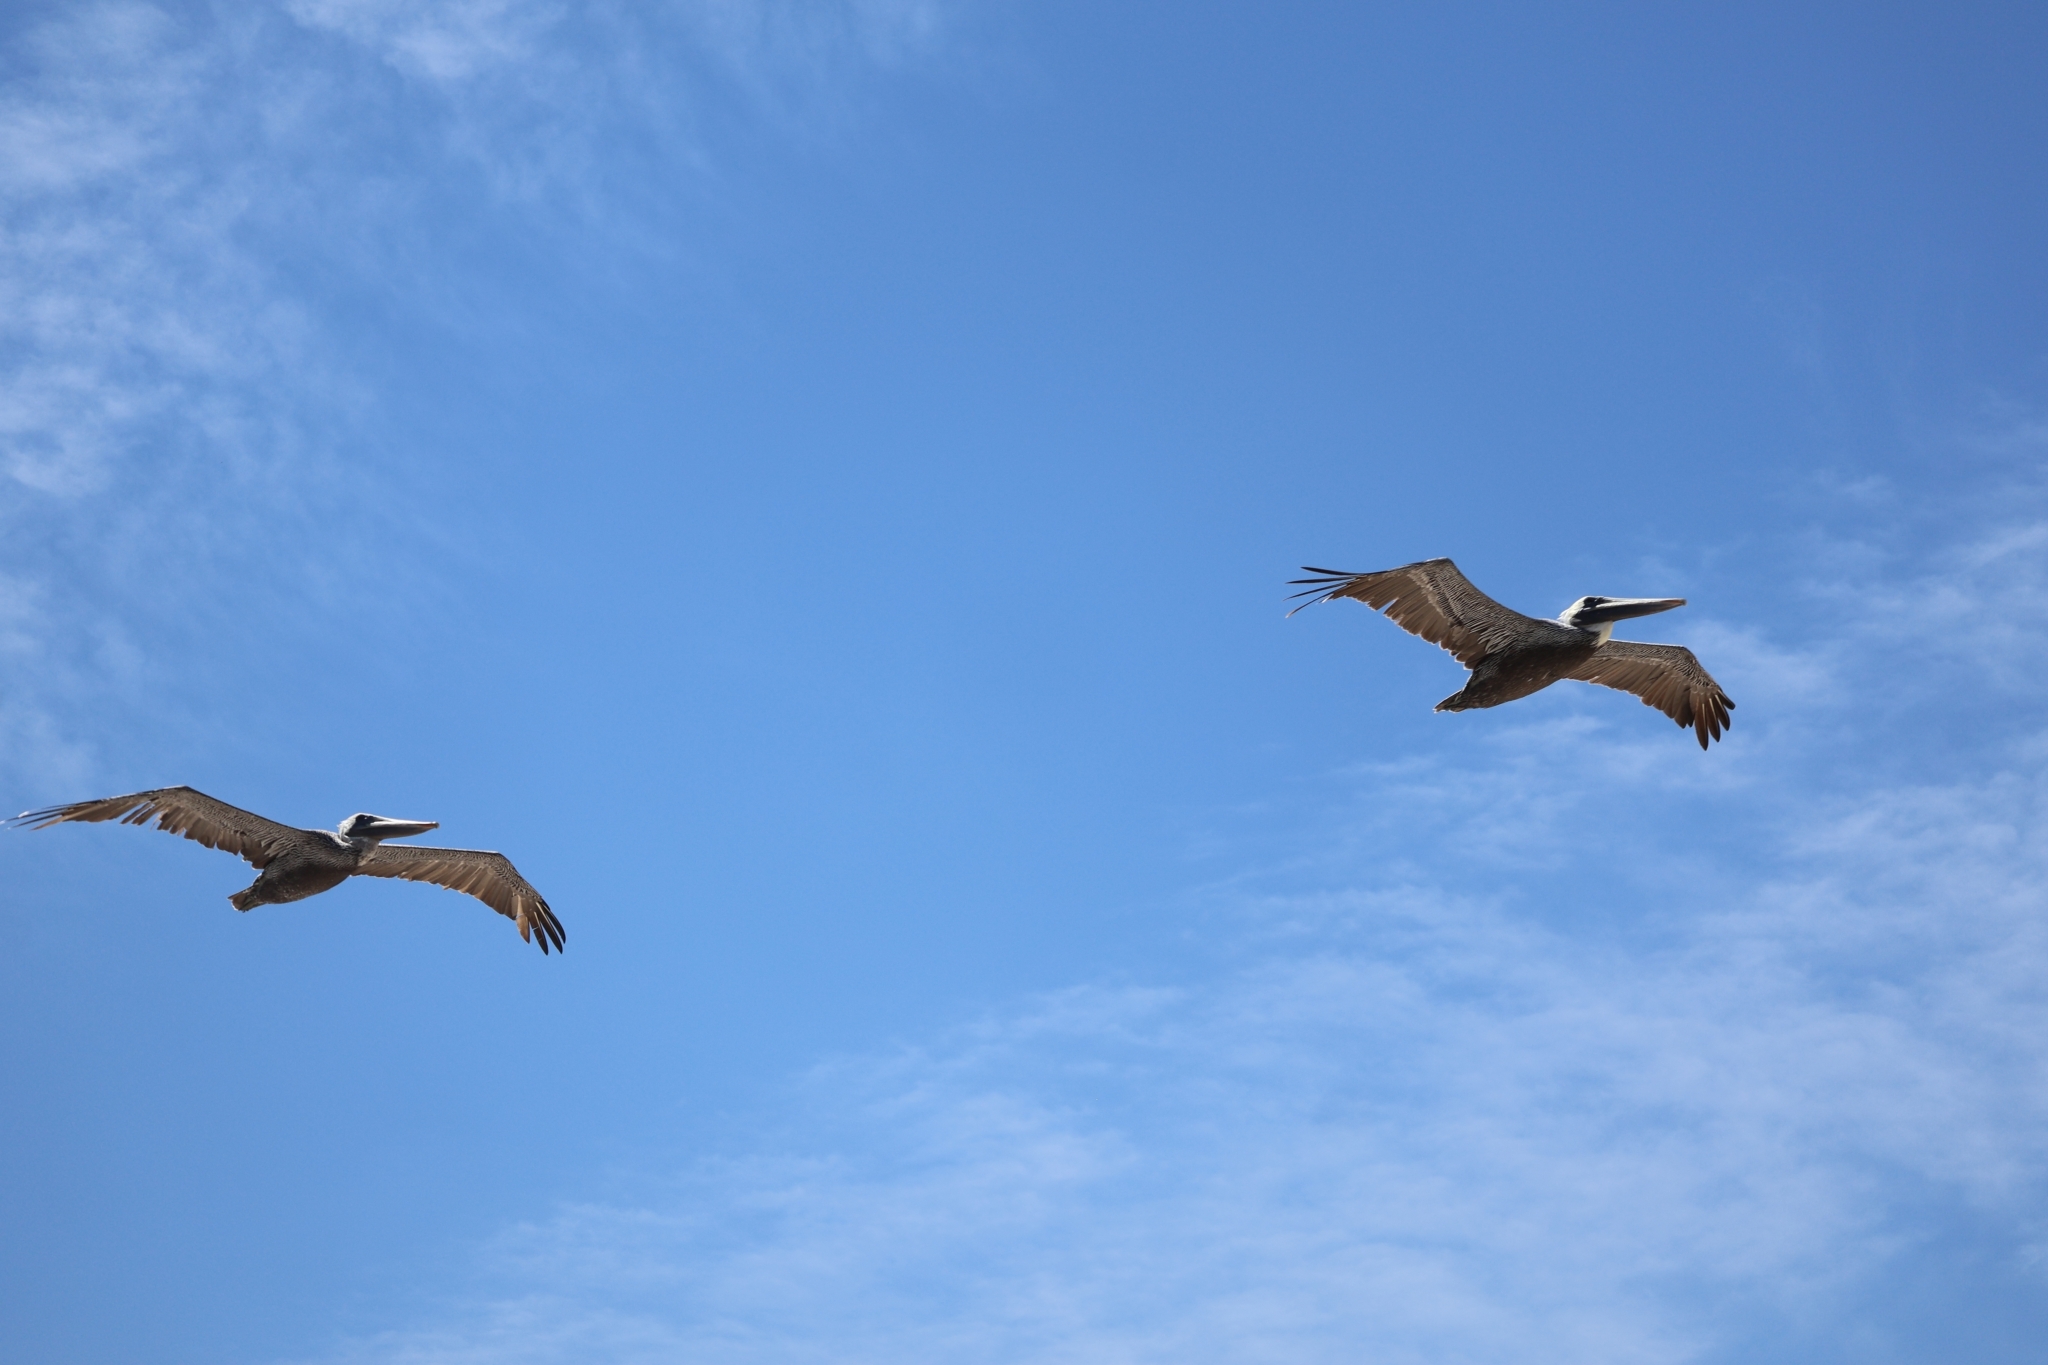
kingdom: Animalia
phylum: Chordata
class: Aves
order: Pelecaniformes
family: Pelecanidae
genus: Pelecanus
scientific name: Pelecanus occidentalis
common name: Brown pelican
